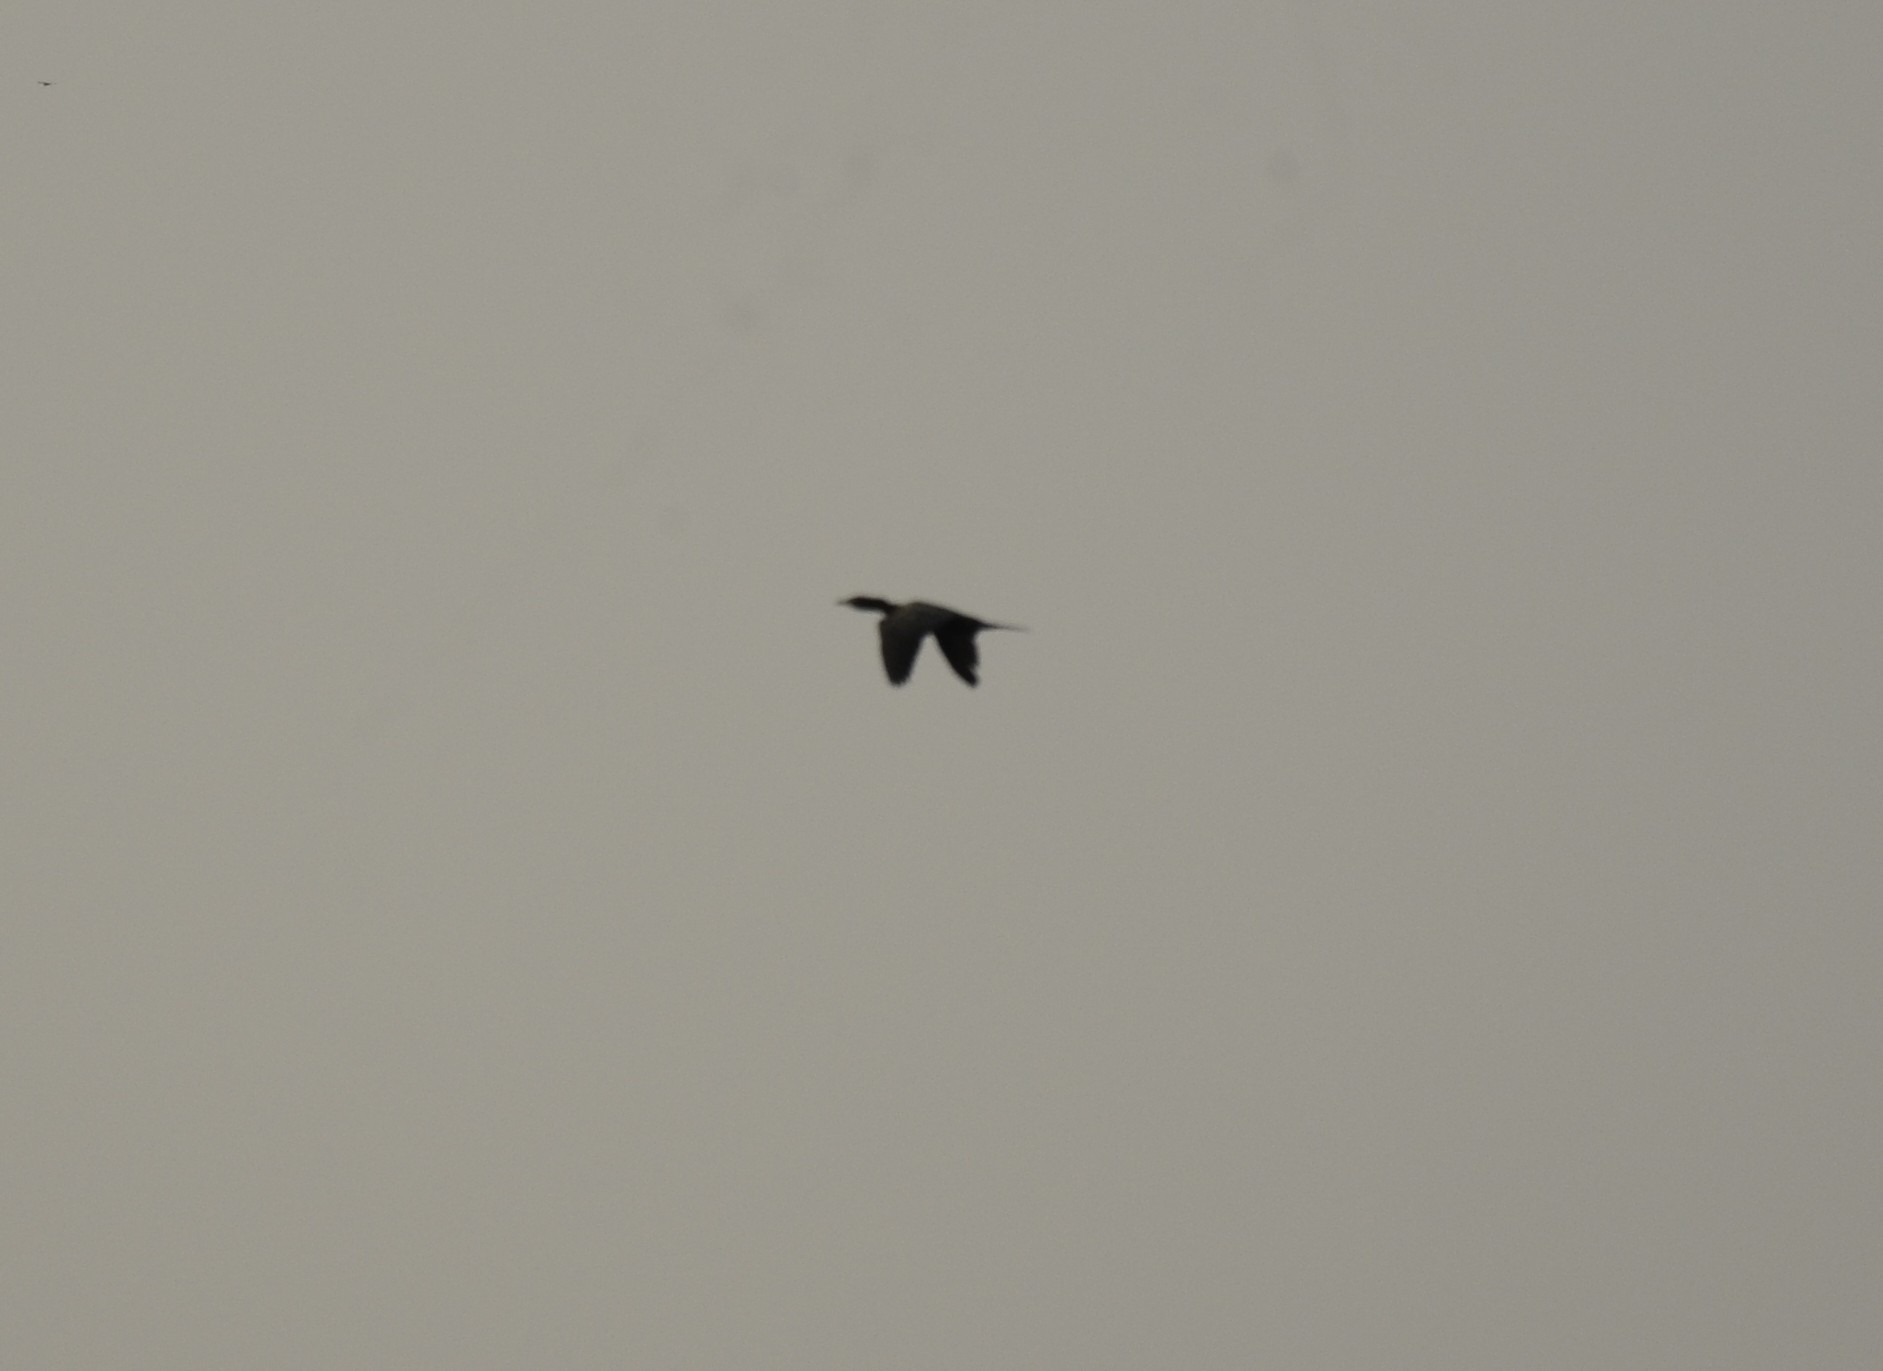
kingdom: Animalia
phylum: Chordata
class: Aves
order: Suliformes
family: Phalacrocoracidae
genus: Microcarbo
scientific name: Microcarbo niger
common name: Little cormorant
